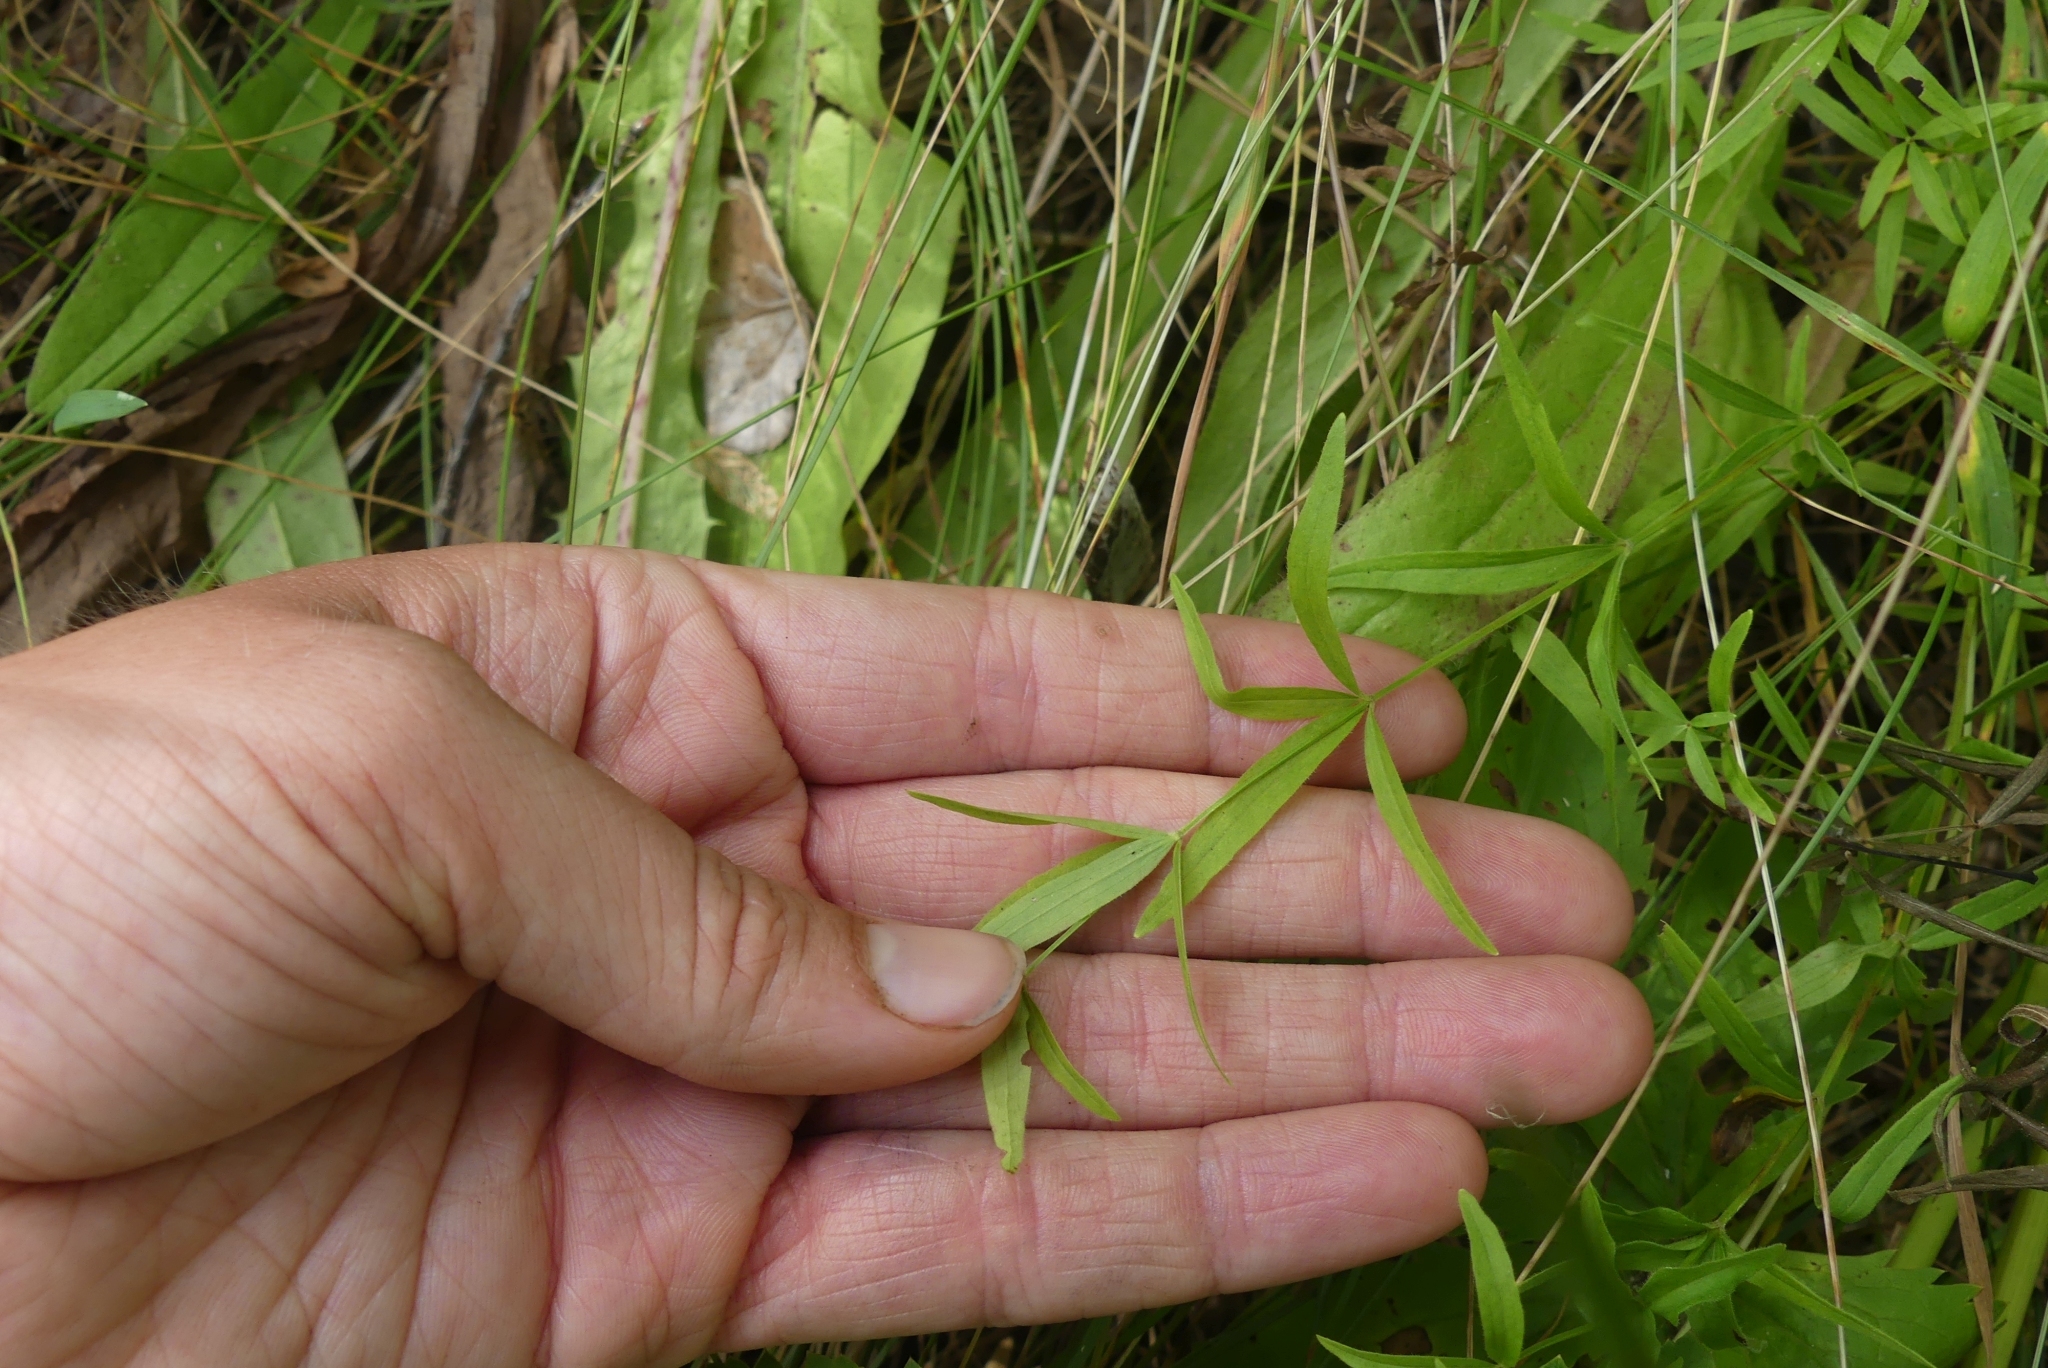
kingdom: Plantae
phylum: Tracheophyta
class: Magnoliopsida
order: Gentianales
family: Rubiaceae
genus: Galium
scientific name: Galium boreale
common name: Northern bedstraw
